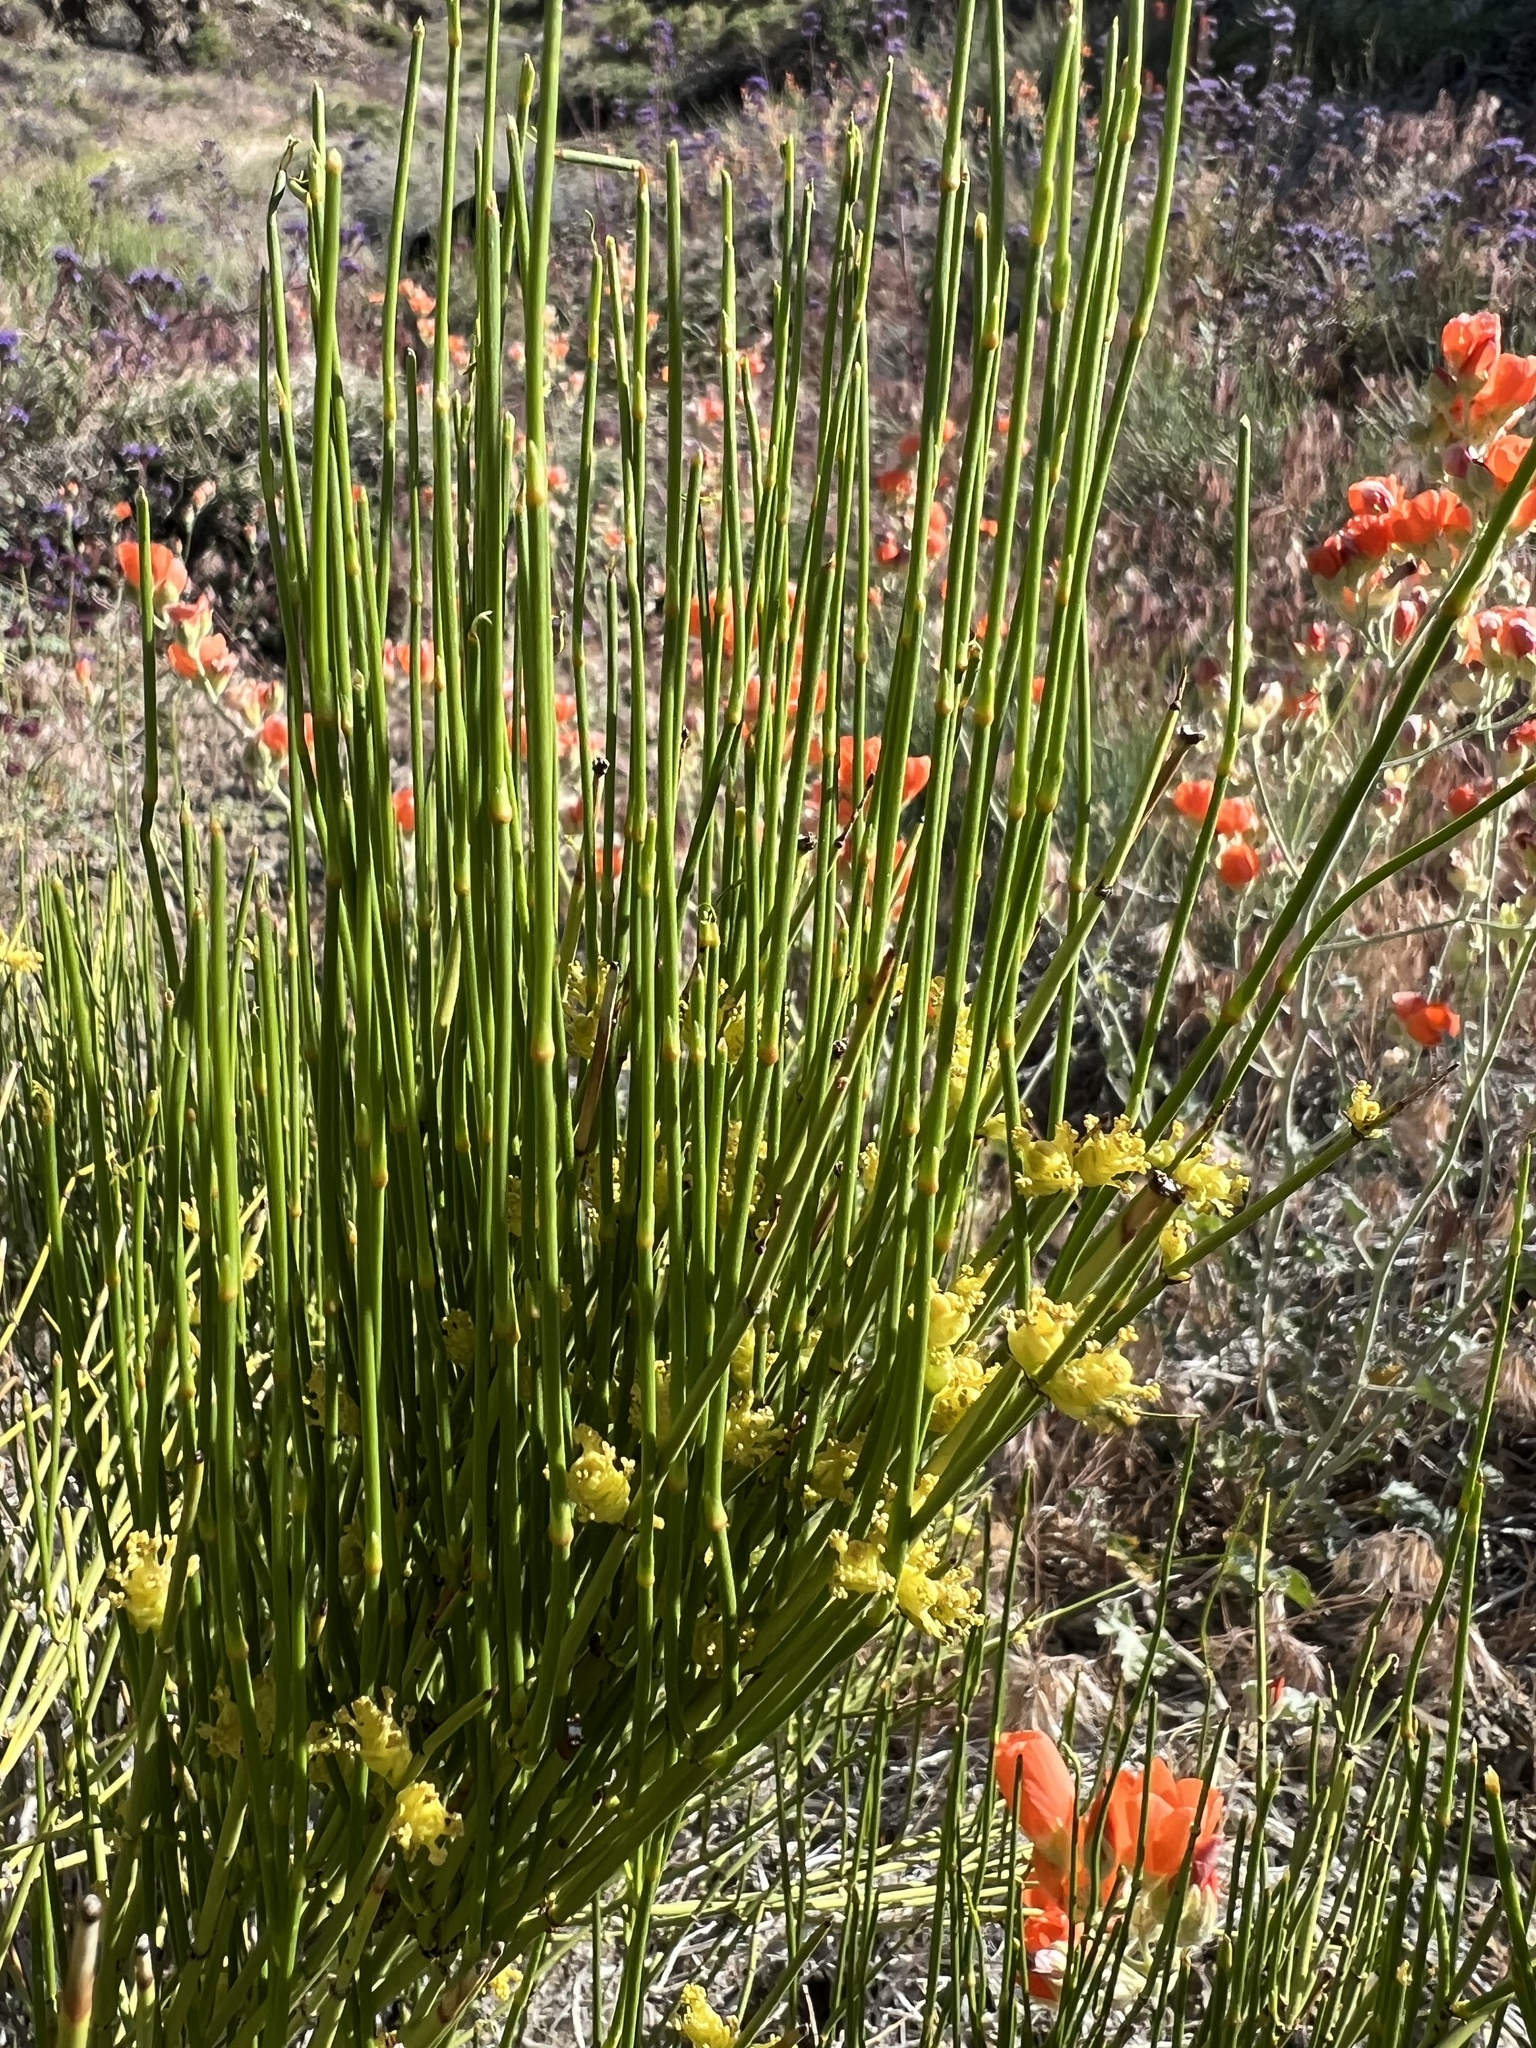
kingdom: Plantae
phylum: Tracheophyta
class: Gnetopsida
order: Ephedrales
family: Ephedraceae
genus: Ephedra
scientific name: Ephedra viridis
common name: Green ephedra
